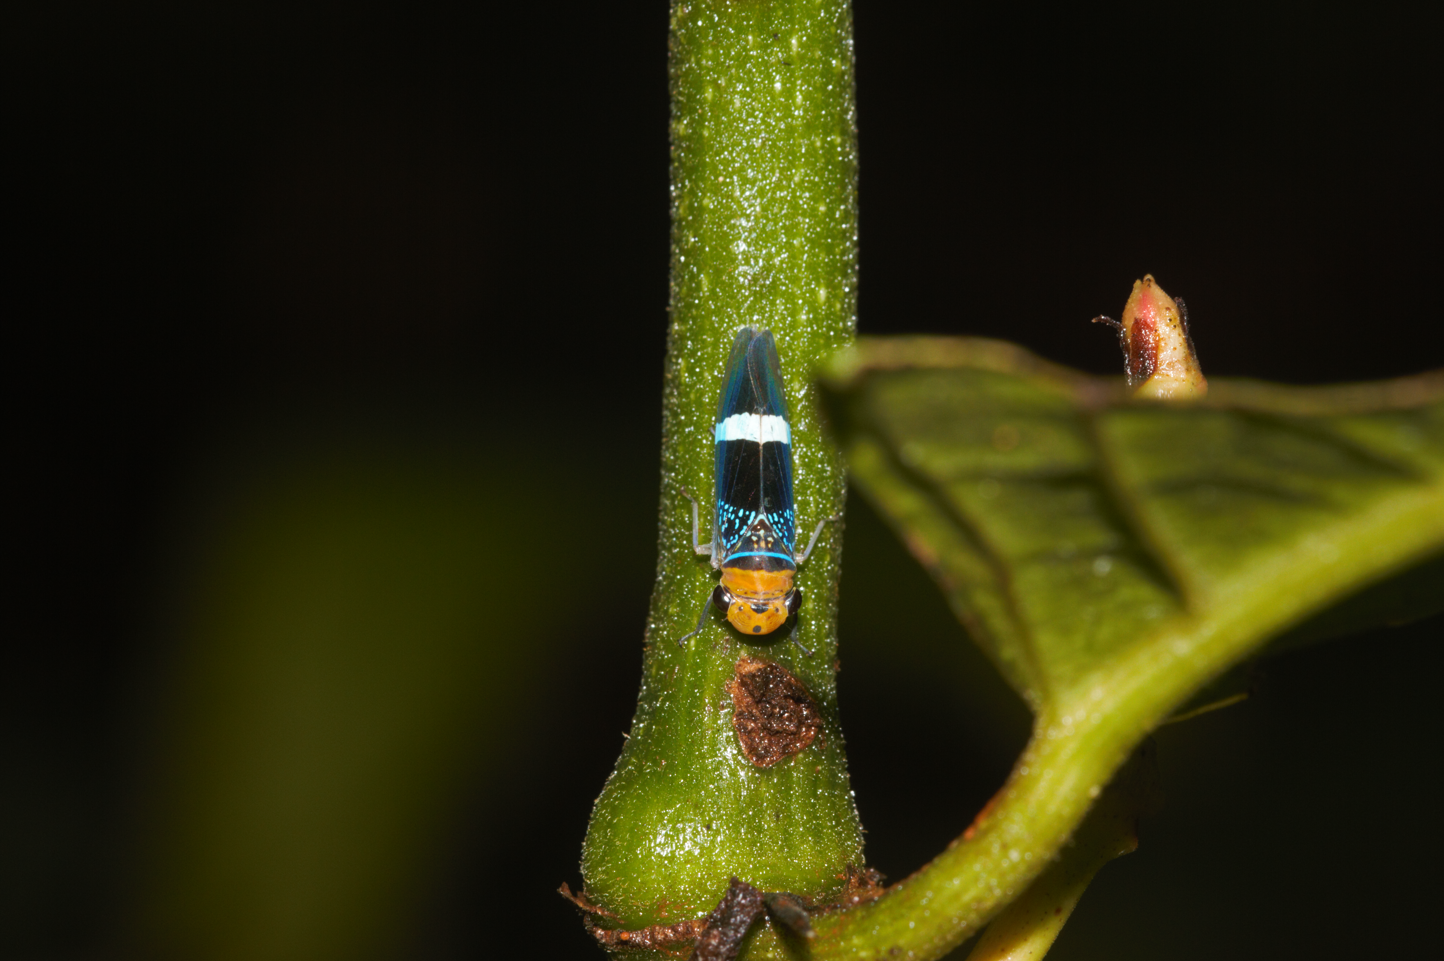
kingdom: Animalia
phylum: Arthropoda
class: Insecta
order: Hemiptera
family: Cicadellidae
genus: Amblyscarta
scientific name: Amblyscarta unifasciata
